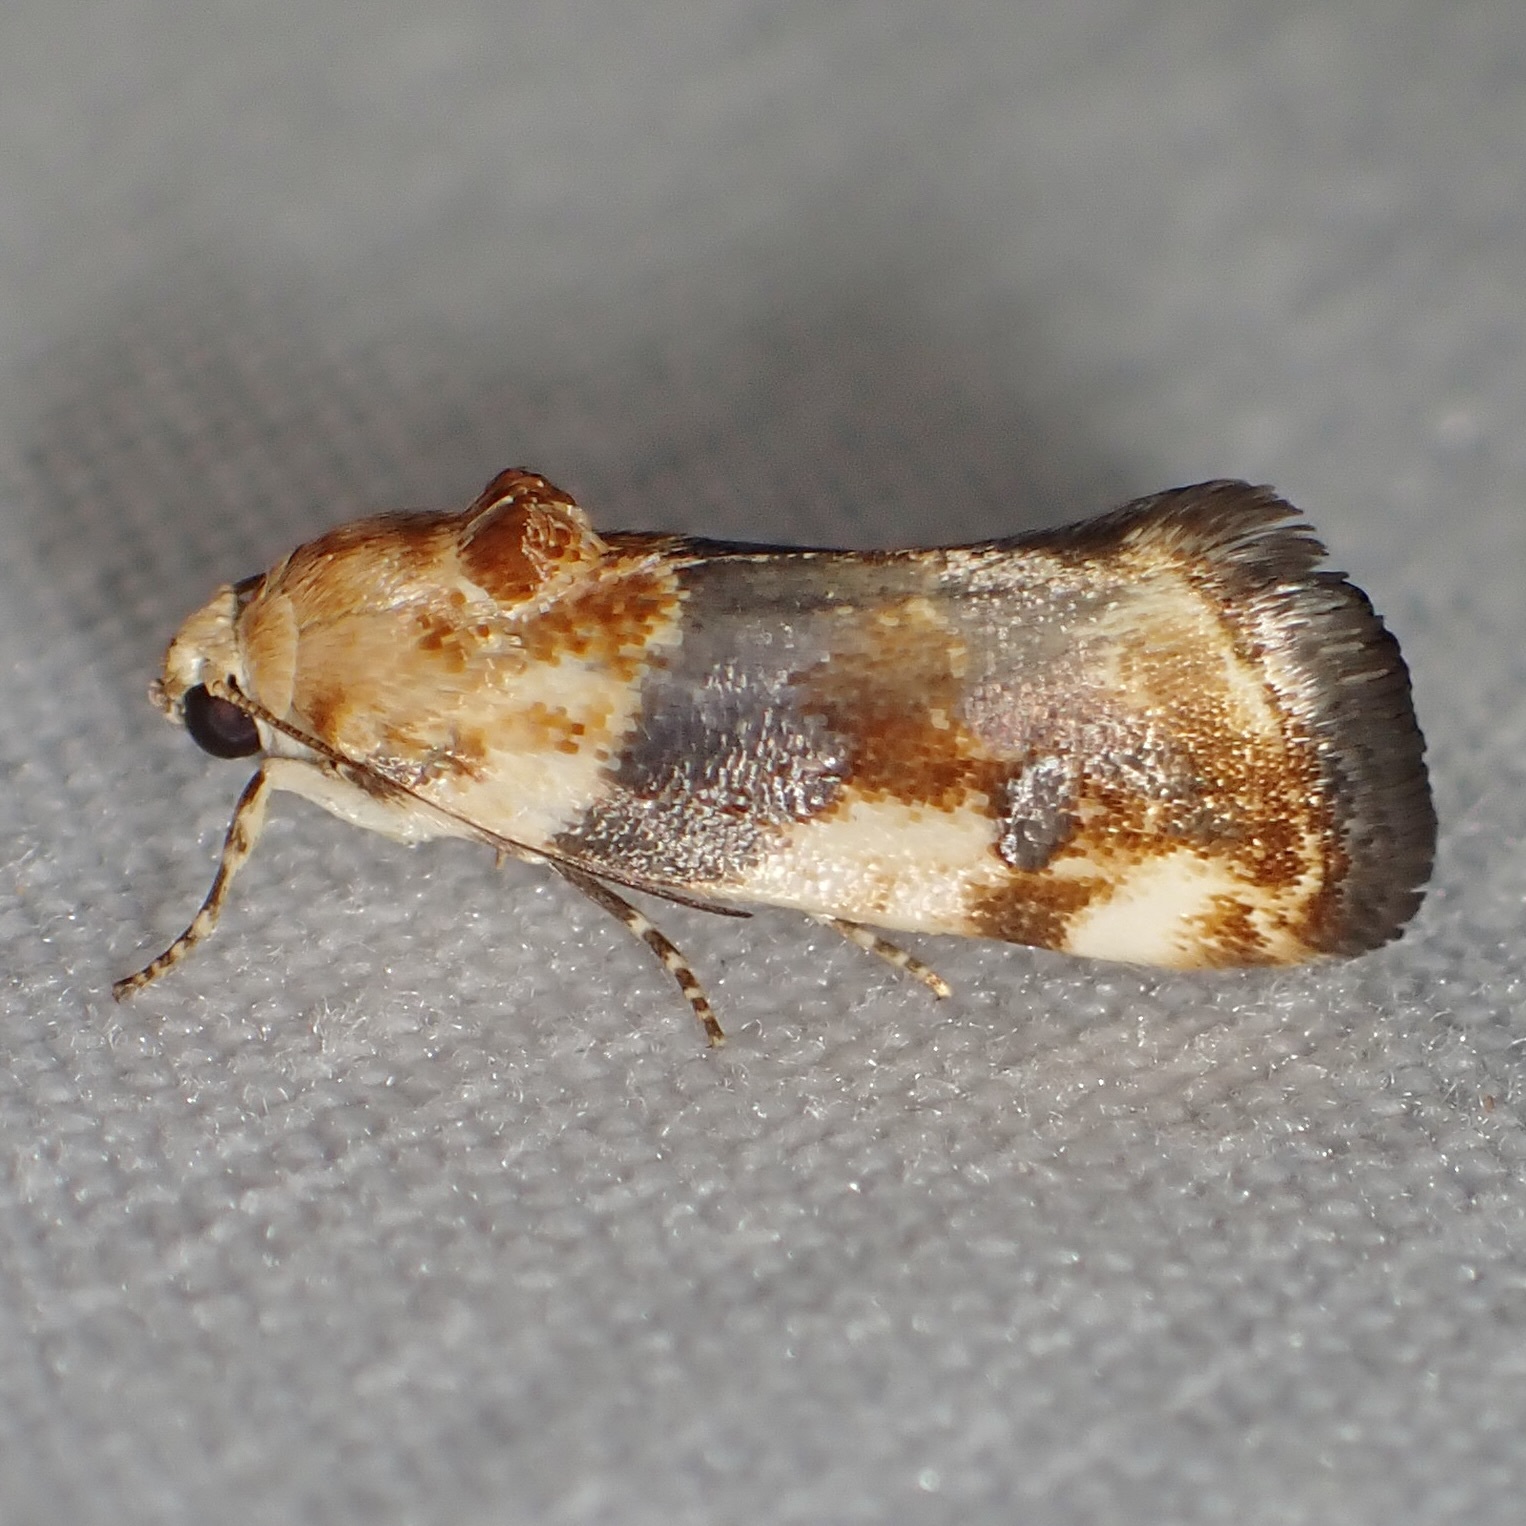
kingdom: Animalia
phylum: Arthropoda
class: Insecta
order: Lepidoptera
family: Noctuidae
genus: Acontia
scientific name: Acontia obatra
